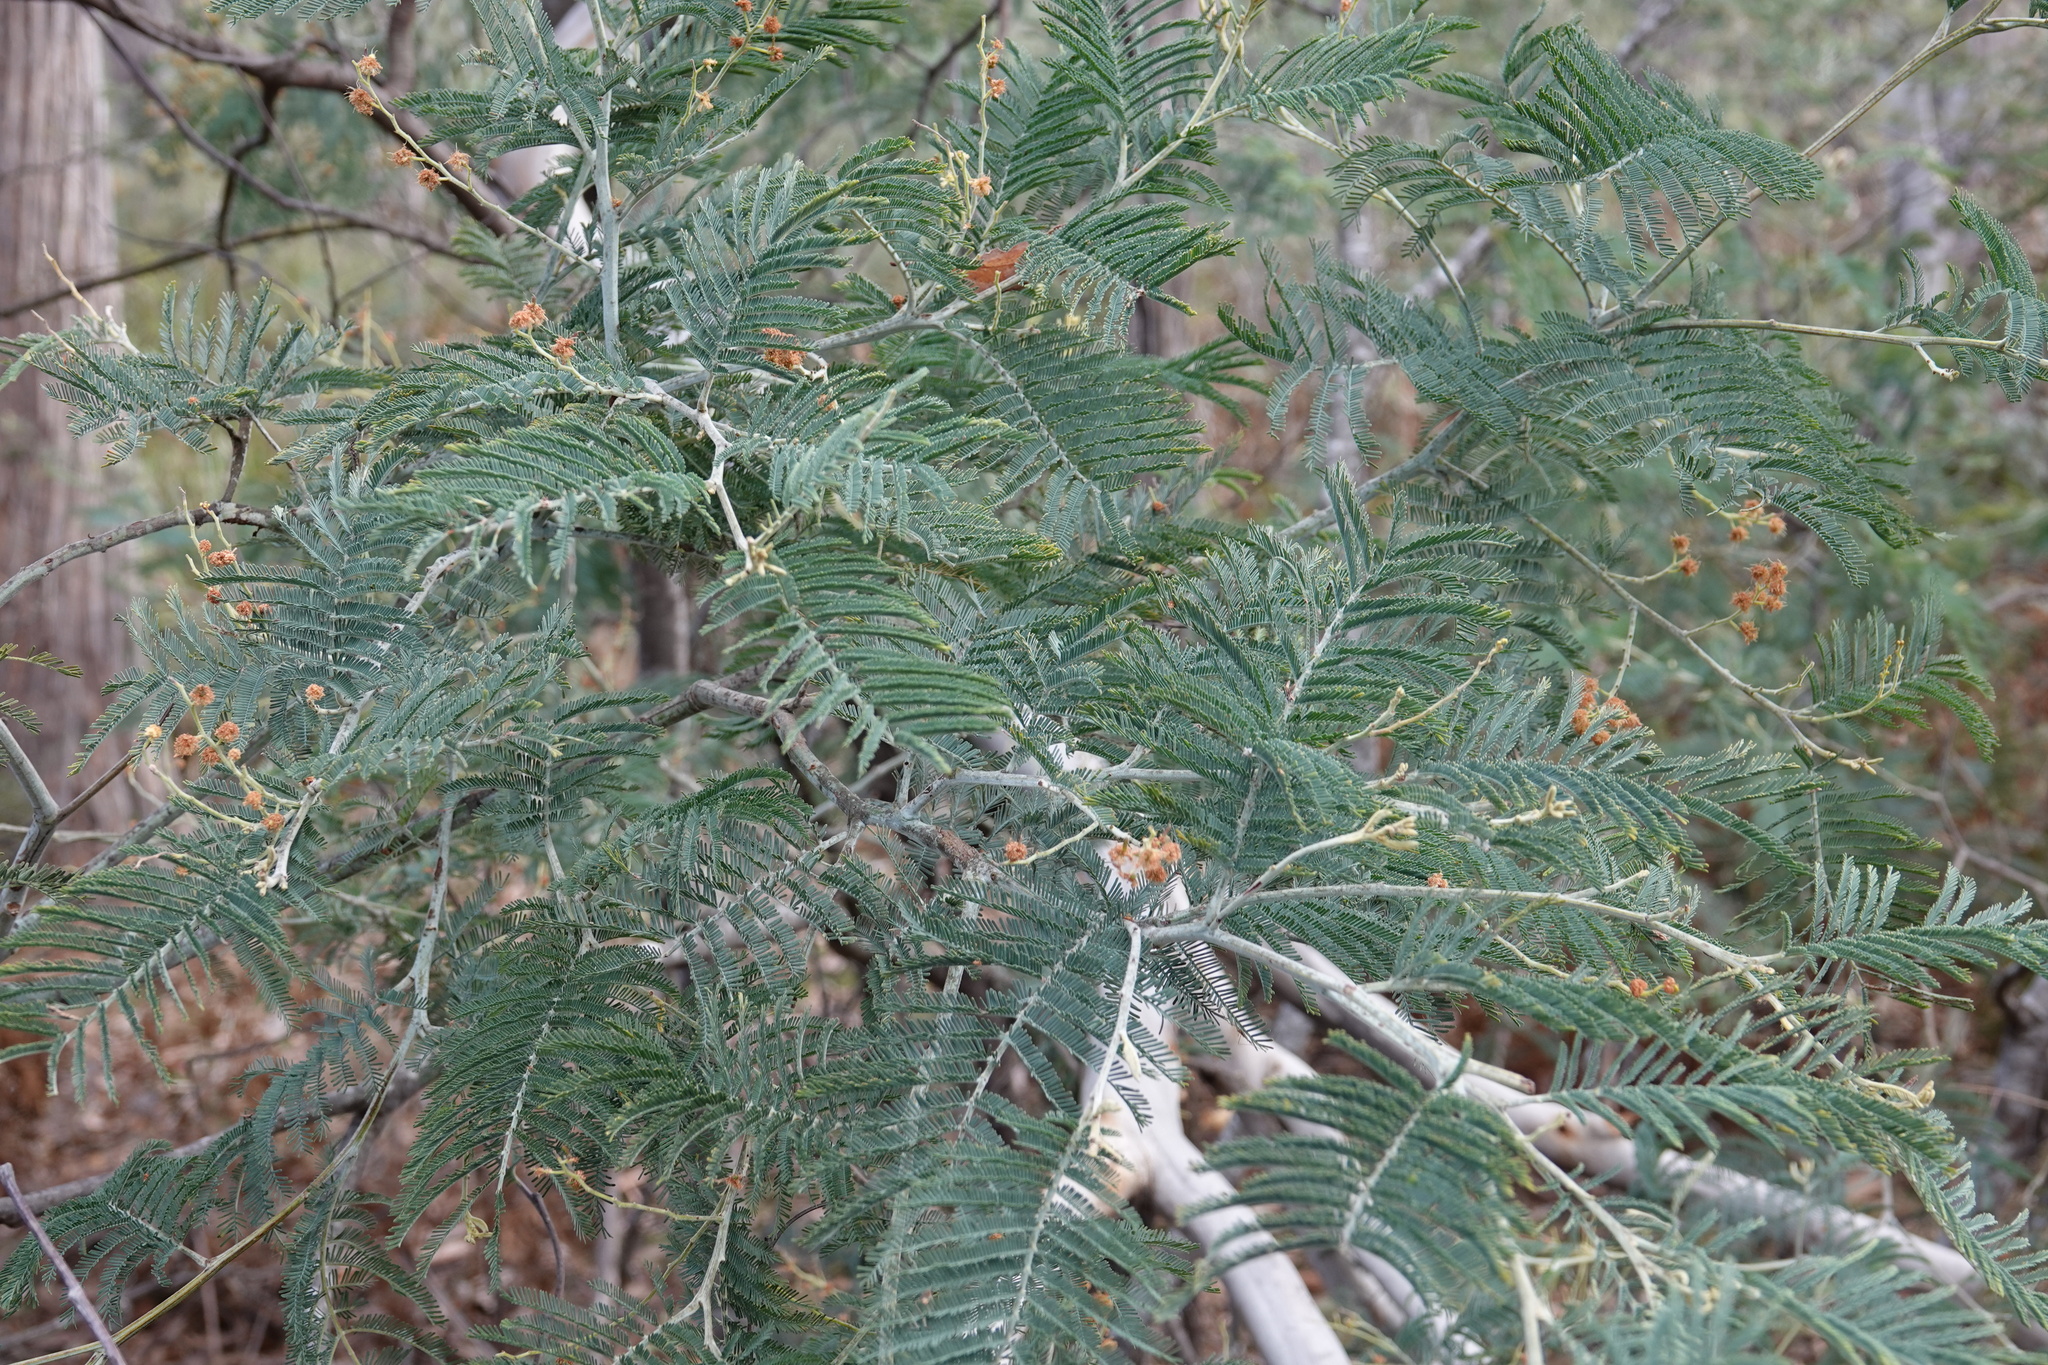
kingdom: Plantae
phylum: Tracheophyta
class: Magnoliopsida
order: Fabales
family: Fabaceae
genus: Acacia
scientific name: Acacia dealbata
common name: Silver wattle
